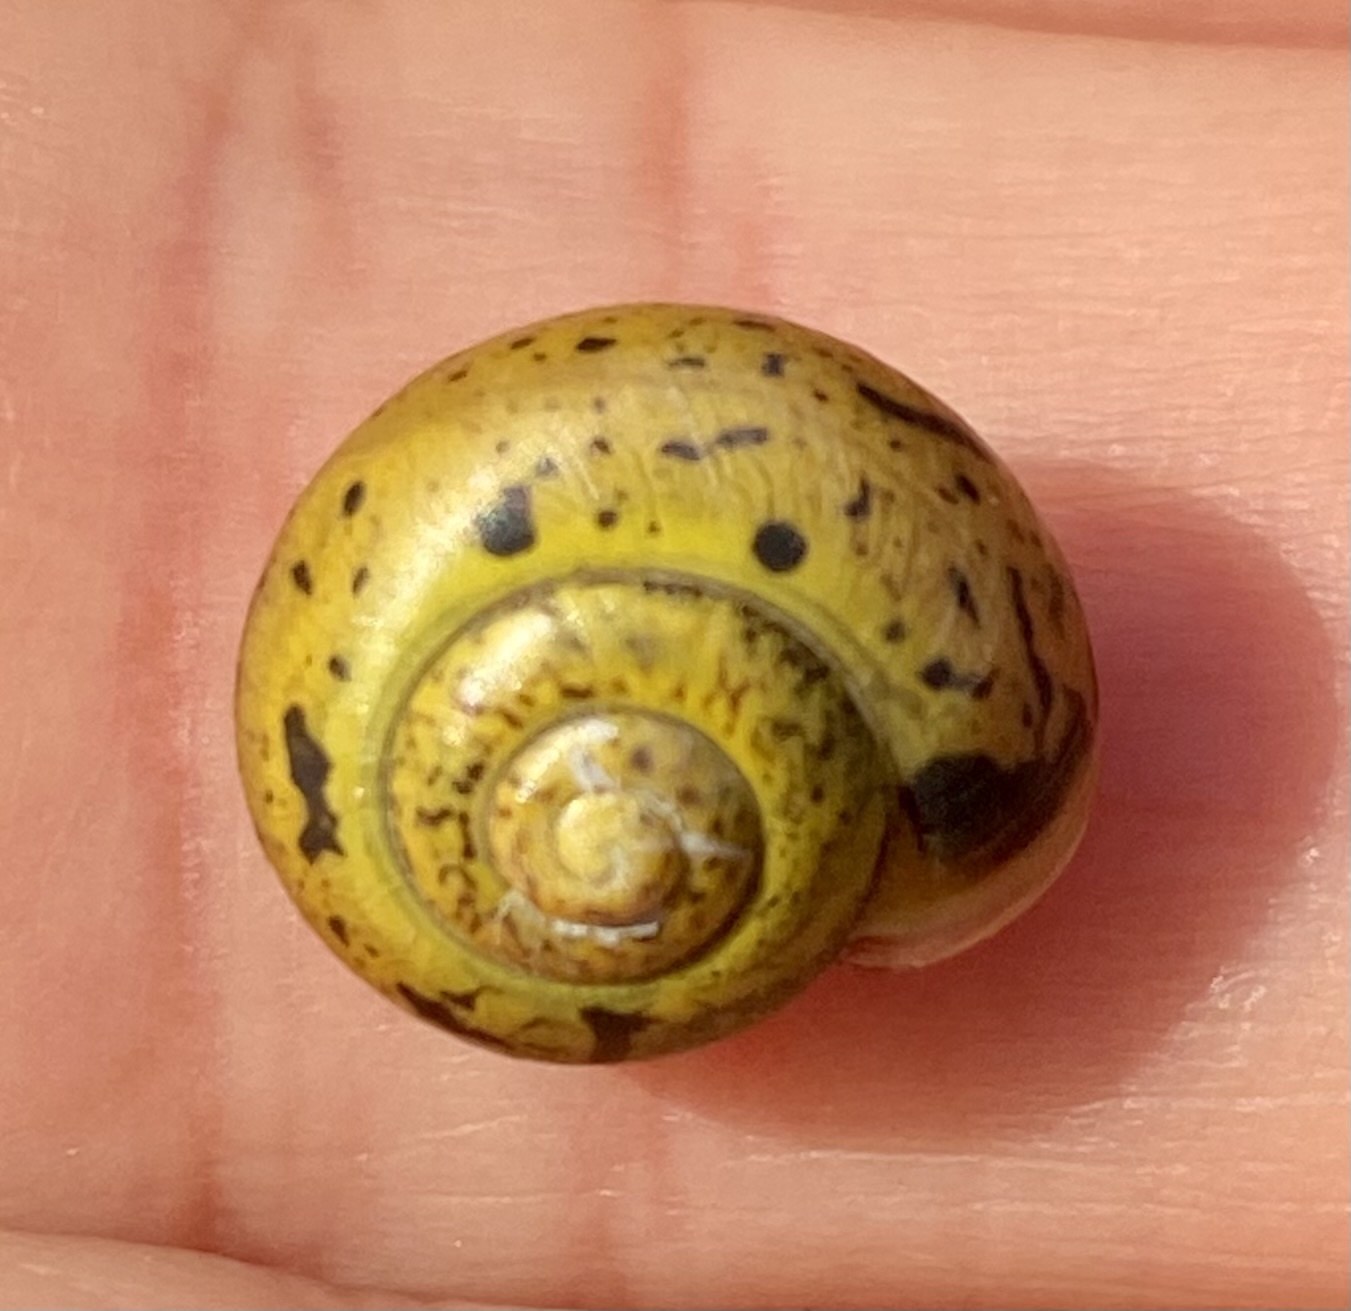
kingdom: Animalia
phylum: Mollusca
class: Gastropoda
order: Stylommatophora
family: Camaenidae
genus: Fruticicola
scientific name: Fruticicola fruticum
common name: Bush snail
